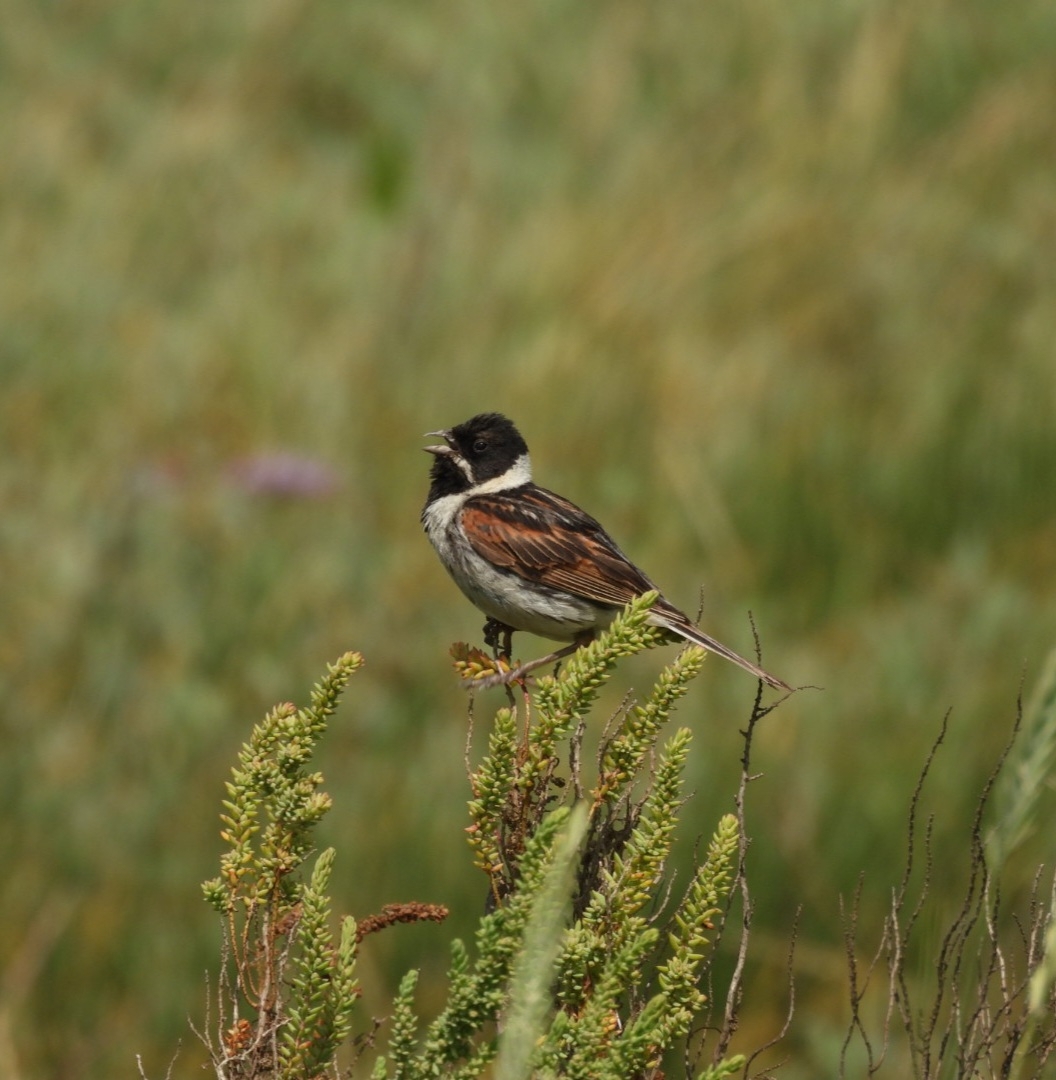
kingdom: Animalia
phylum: Chordata
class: Aves
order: Passeriformes
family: Emberizidae
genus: Emberiza
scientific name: Emberiza schoeniclus
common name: Reed bunting
